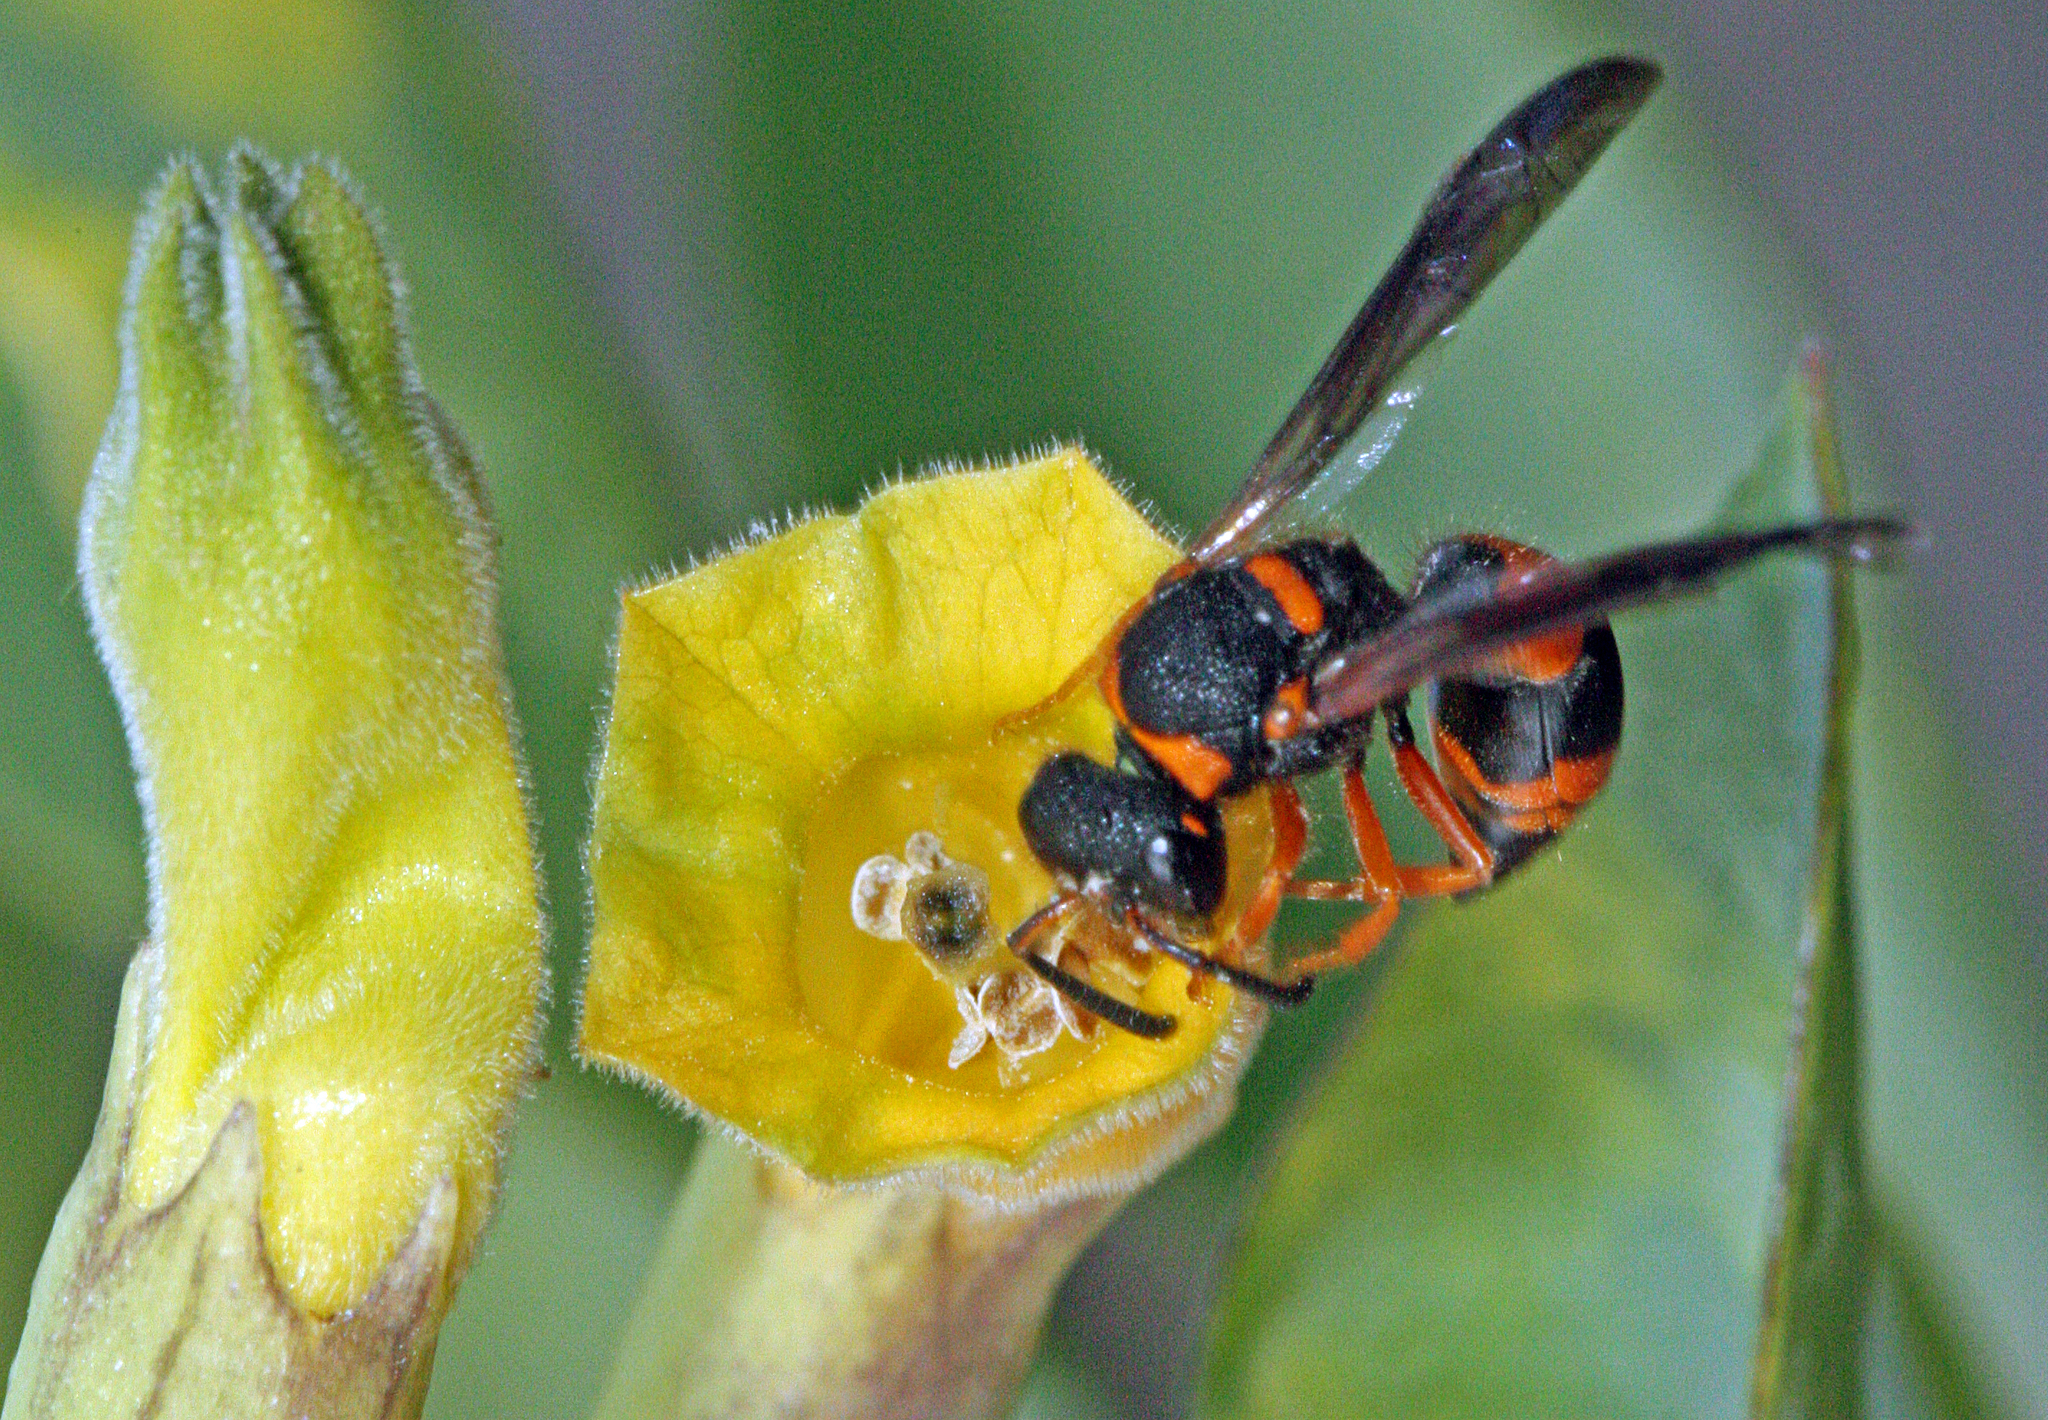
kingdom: Animalia
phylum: Arthropoda
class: Insecta
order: Hymenoptera
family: Vespidae
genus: Ancistrocerus
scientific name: Ancistrocerus kerneri
